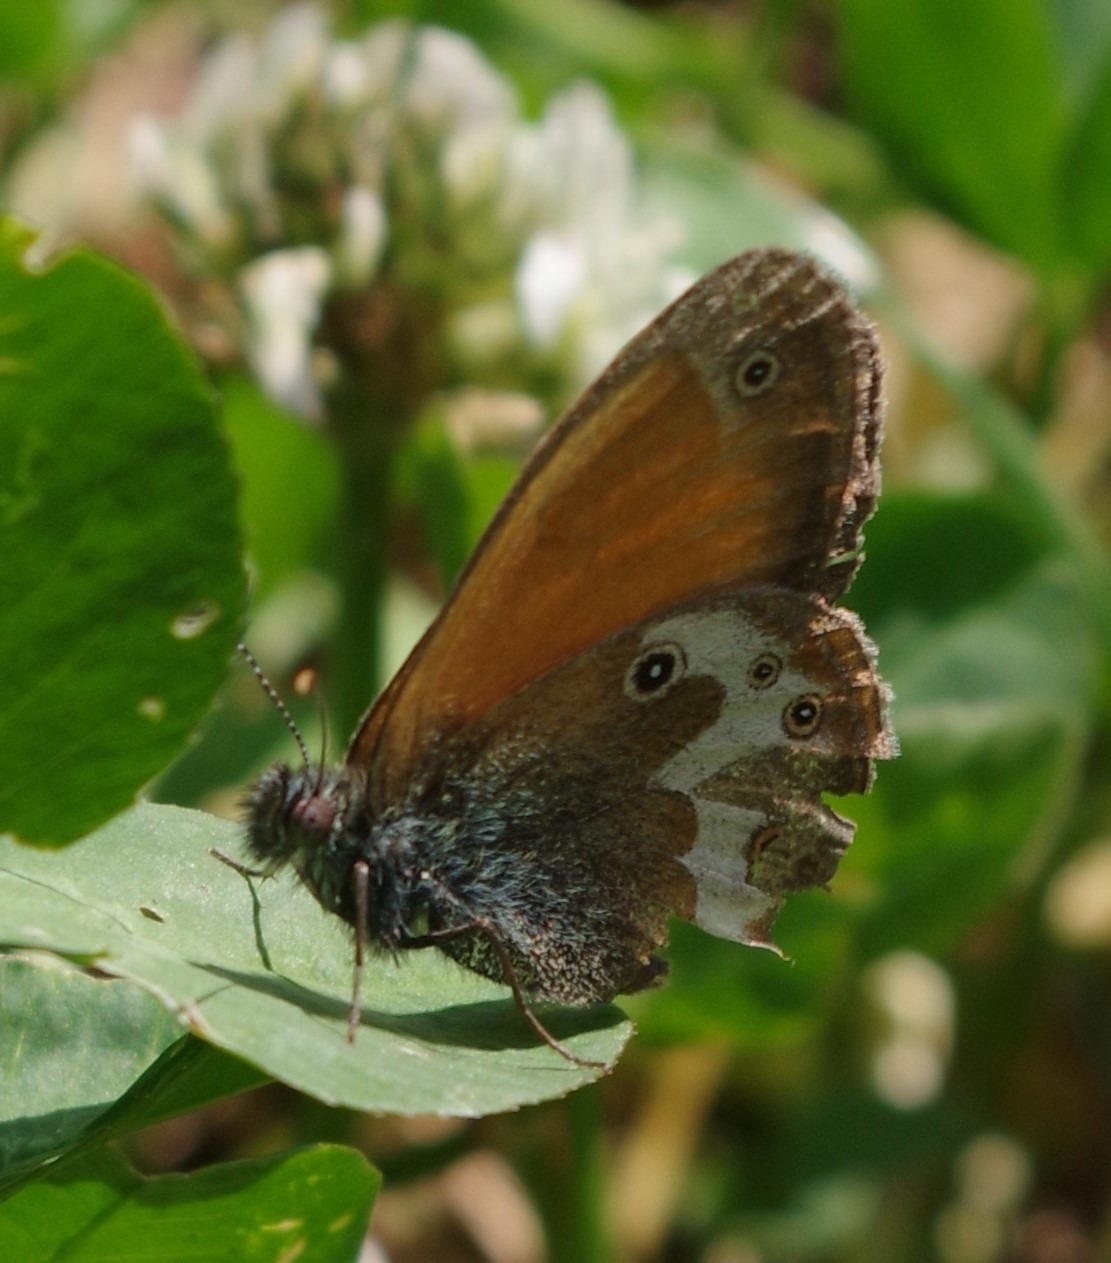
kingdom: Animalia
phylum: Arthropoda
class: Insecta
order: Lepidoptera
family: Nymphalidae
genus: Coenonympha
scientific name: Coenonympha arcania
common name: Pearly heath
